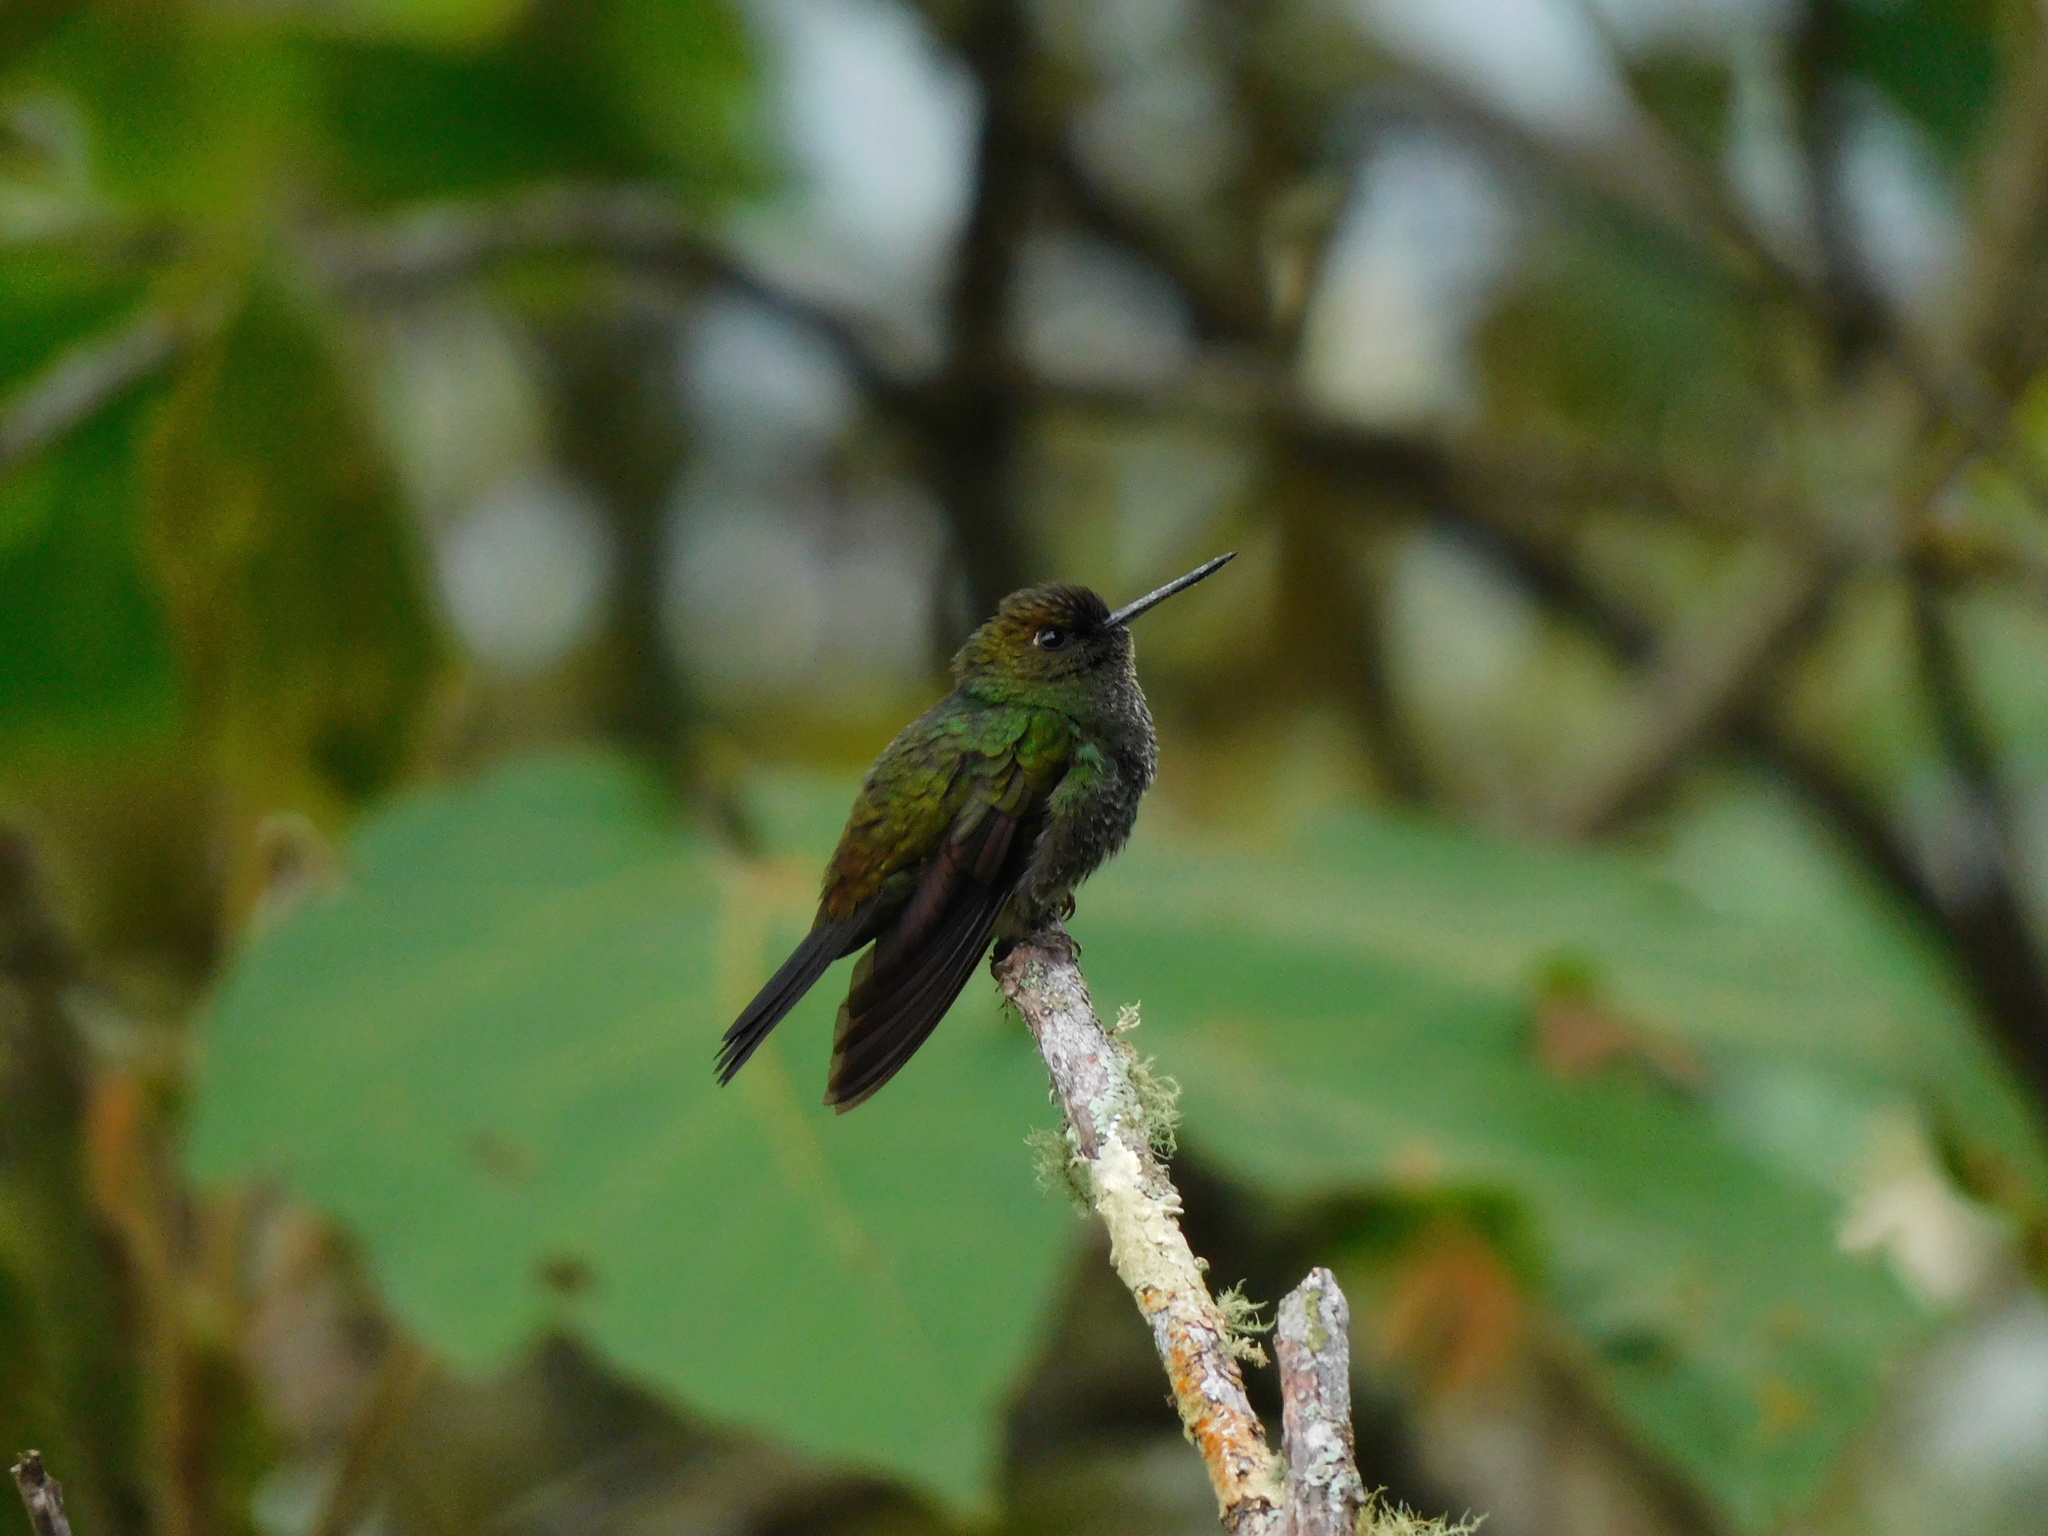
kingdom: Animalia
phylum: Chordata
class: Aves
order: Apodiformes
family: Trochilidae
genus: Haplophaedia
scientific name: Haplophaedia aureliae
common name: Greenish puffleg
